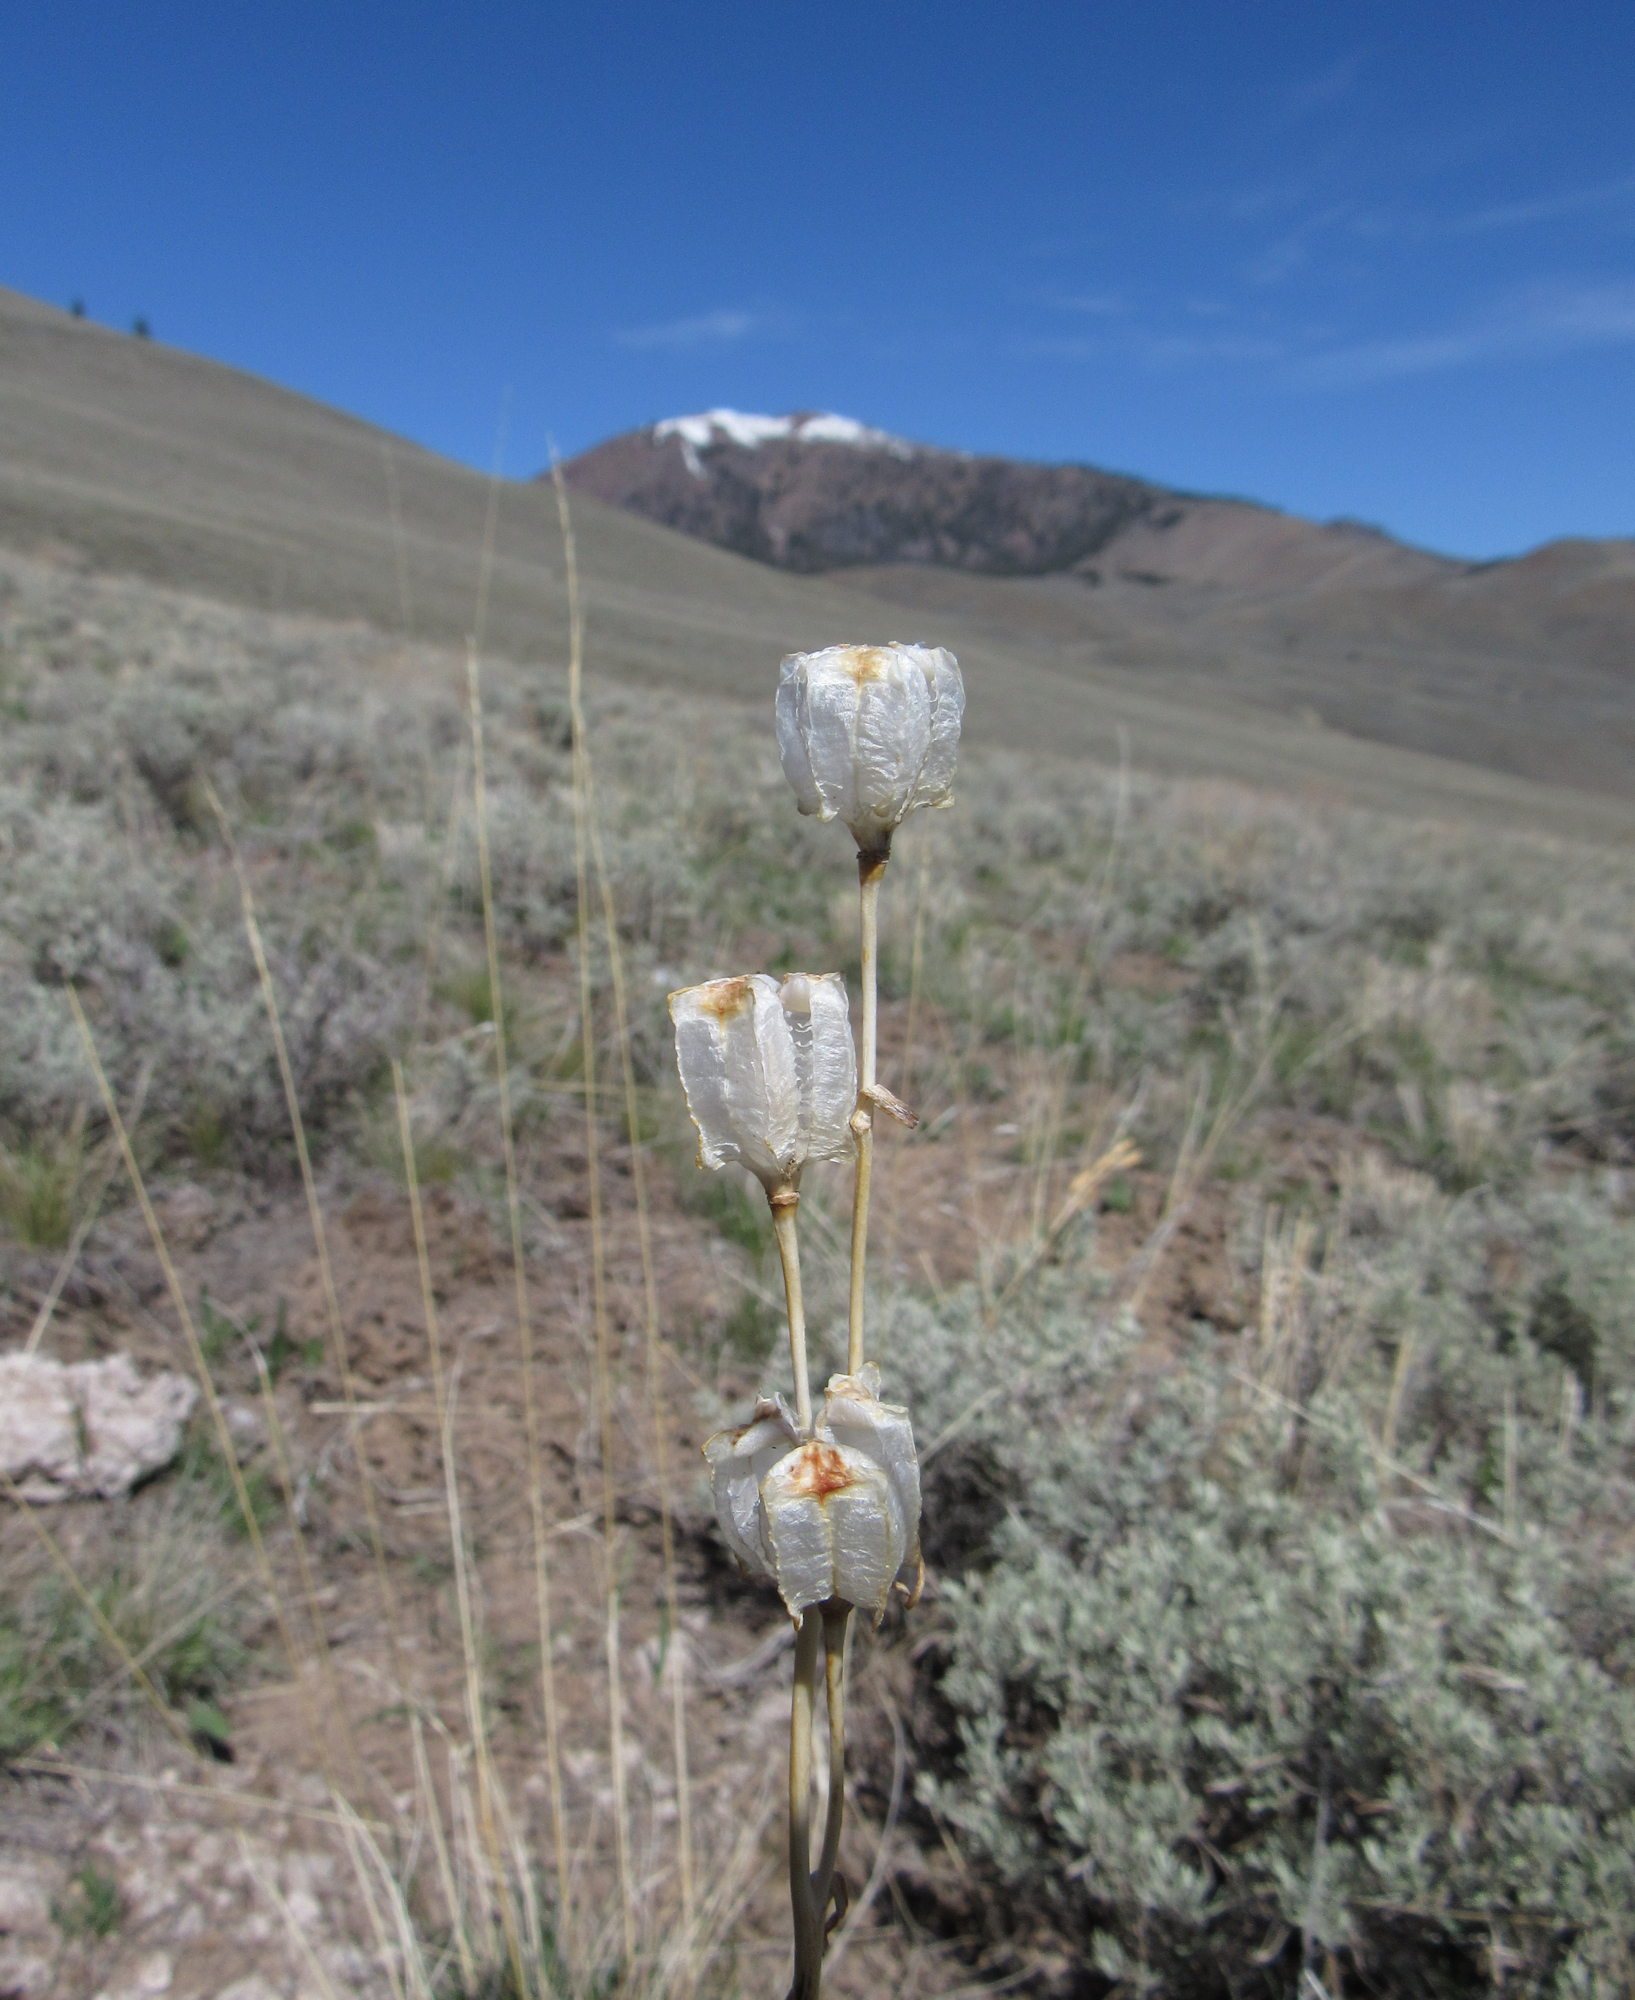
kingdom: Plantae
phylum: Tracheophyta
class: Liliopsida
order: Liliales
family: Liliaceae
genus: Fritillaria
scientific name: Fritillaria atropurpurea
